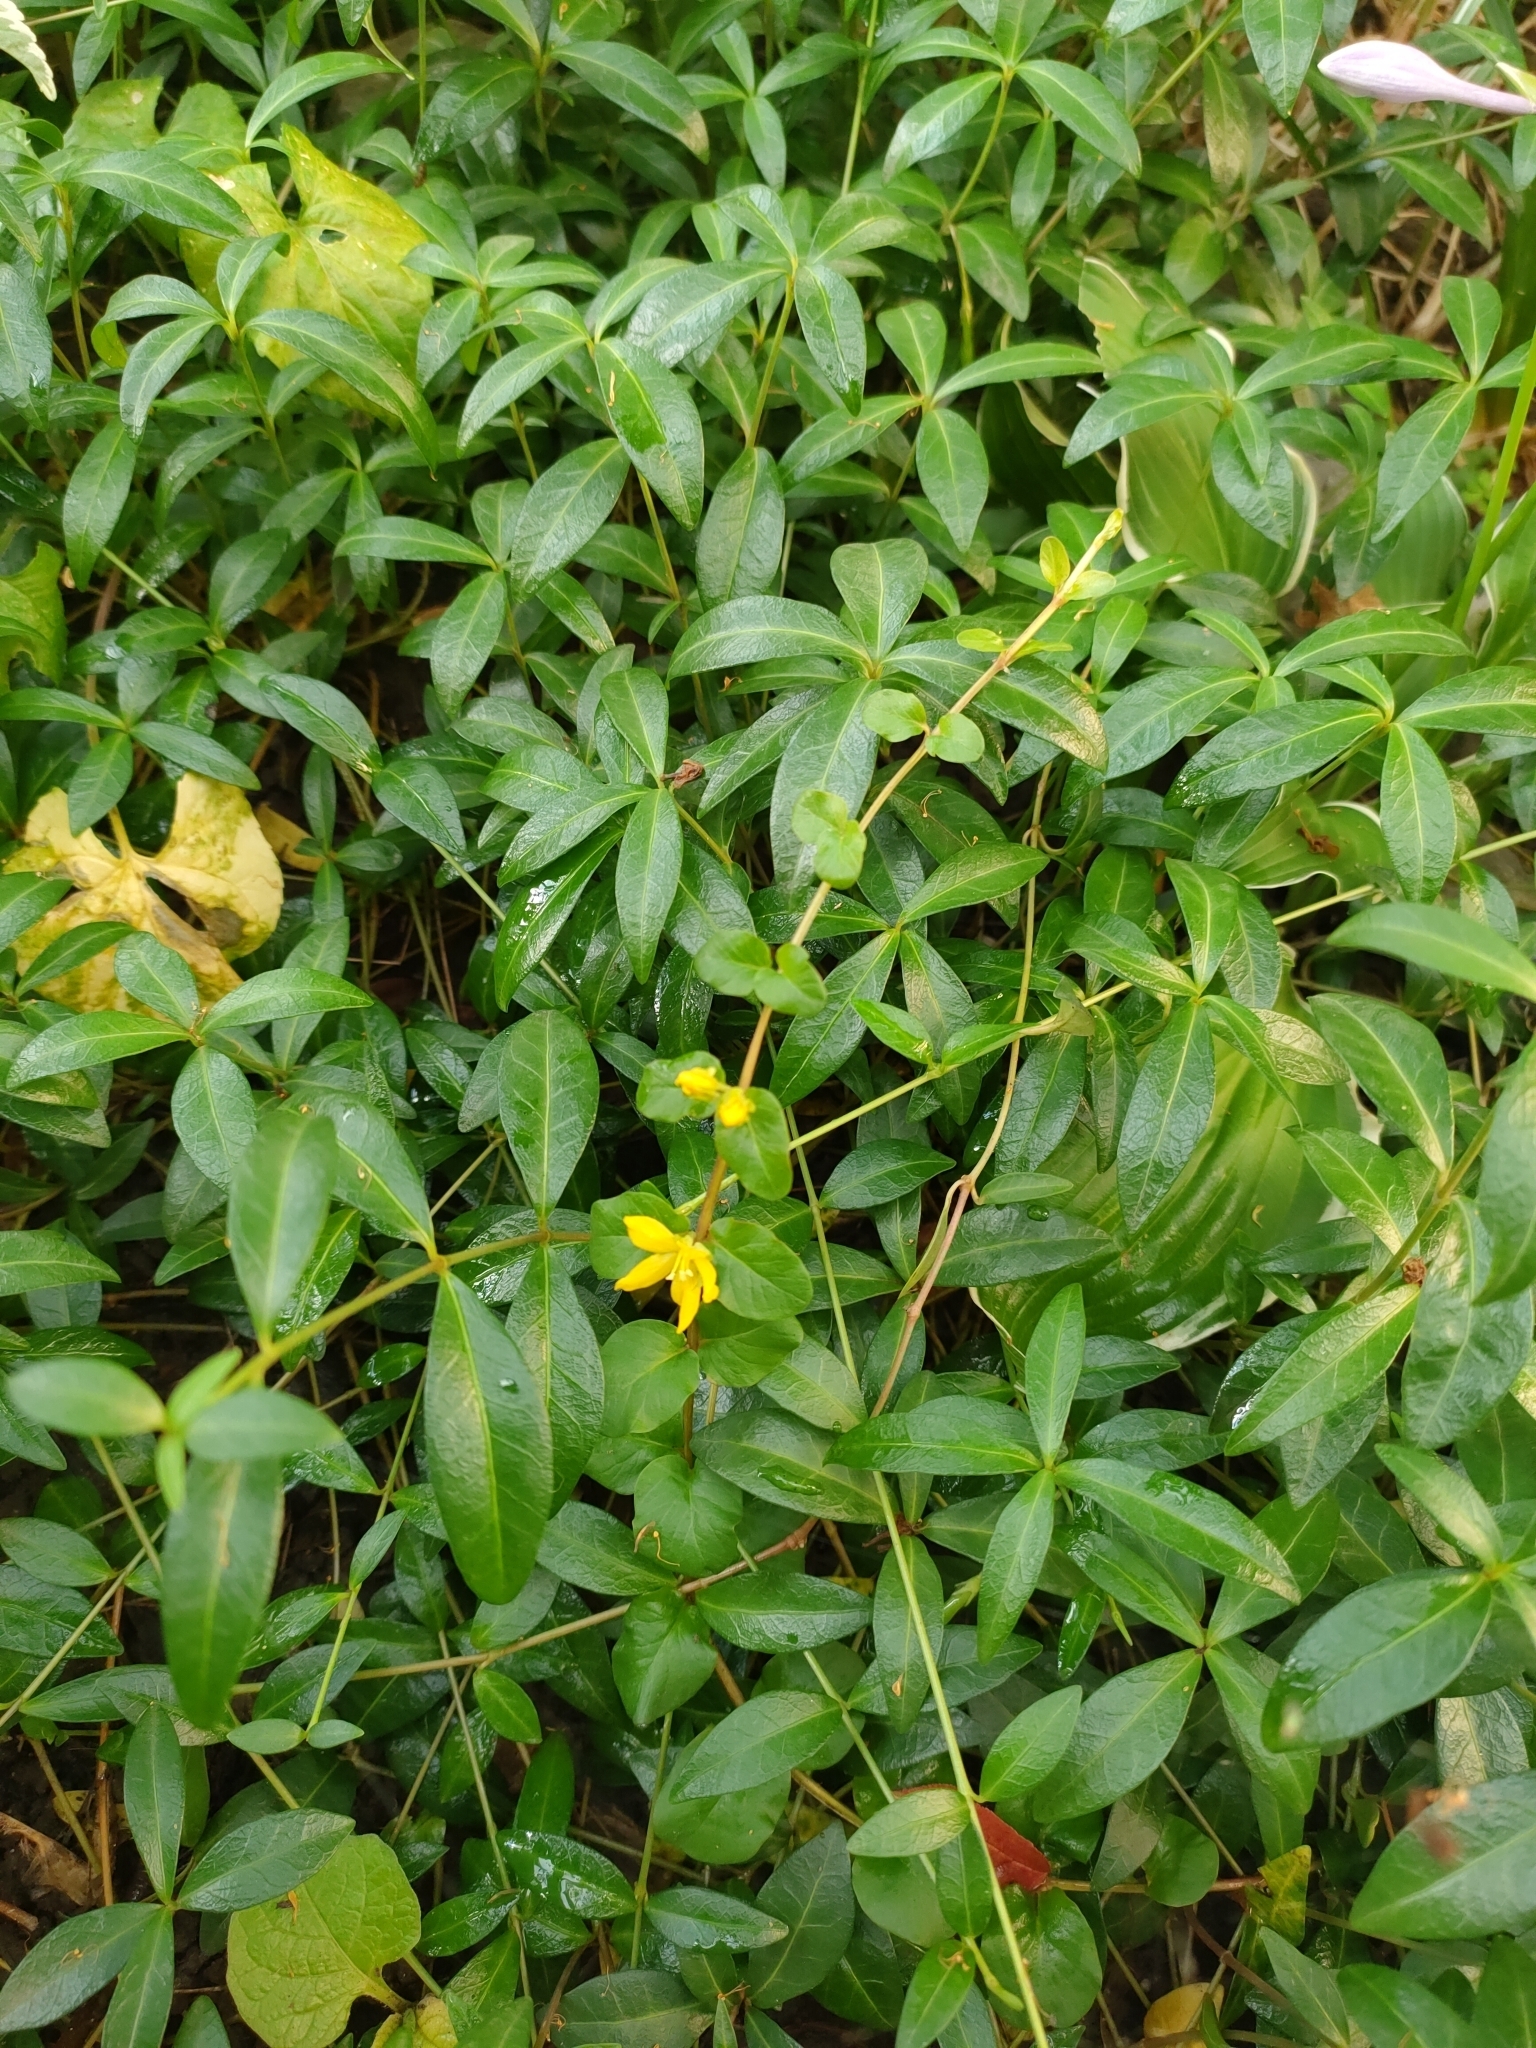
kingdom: Plantae
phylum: Tracheophyta
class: Magnoliopsida
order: Ericales
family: Primulaceae
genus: Lysimachia
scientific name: Lysimachia nummularia
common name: Moneywort
